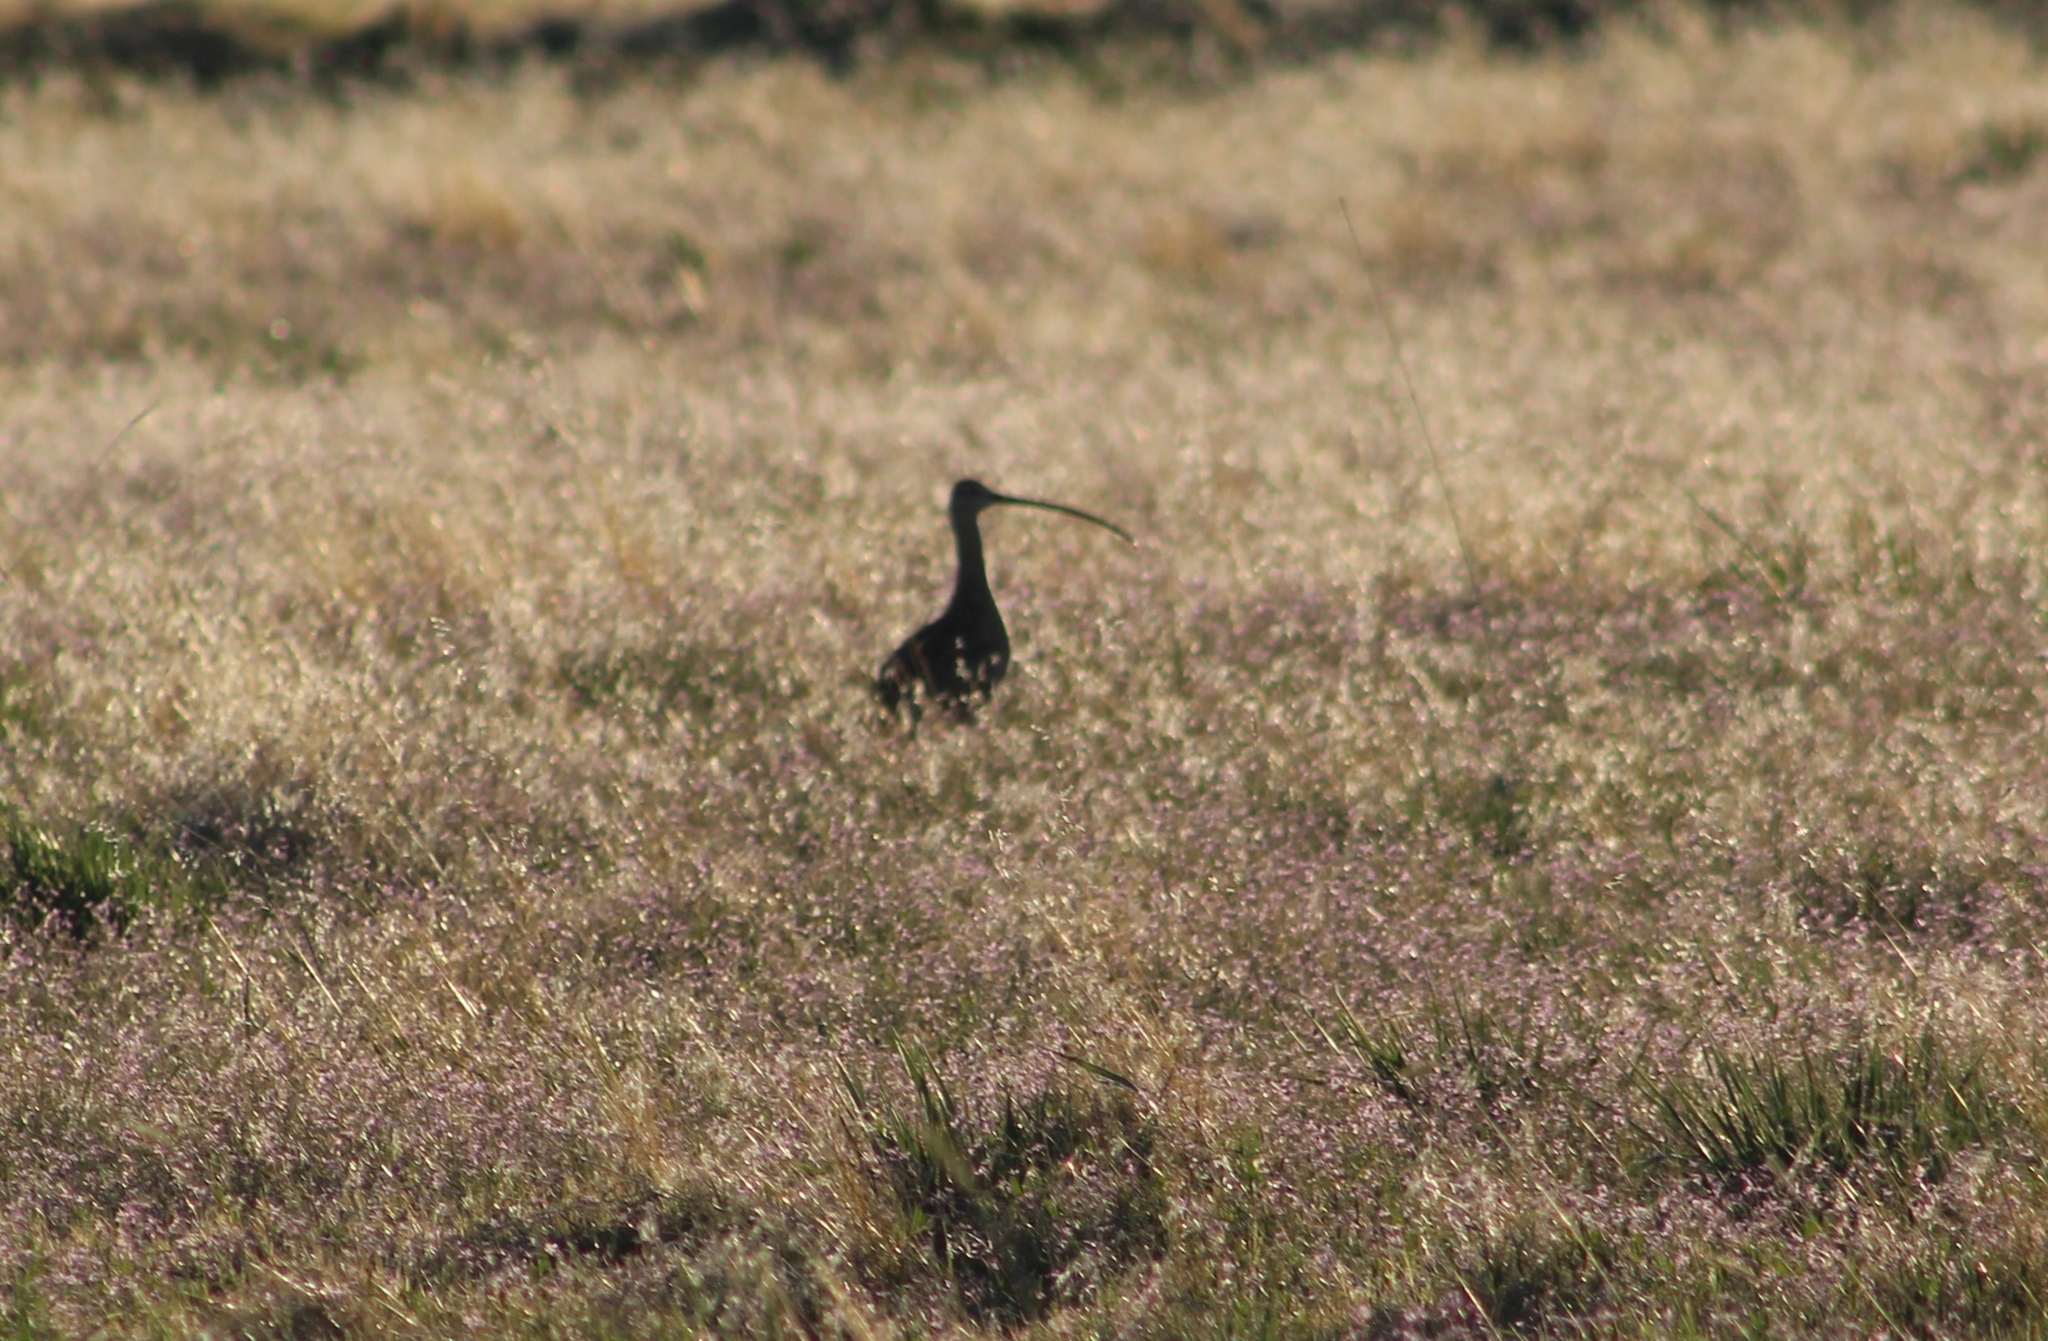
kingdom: Animalia
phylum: Chordata
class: Aves
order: Charadriiformes
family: Scolopacidae
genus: Numenius
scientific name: Numenius americanus
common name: Long-billed curlew
